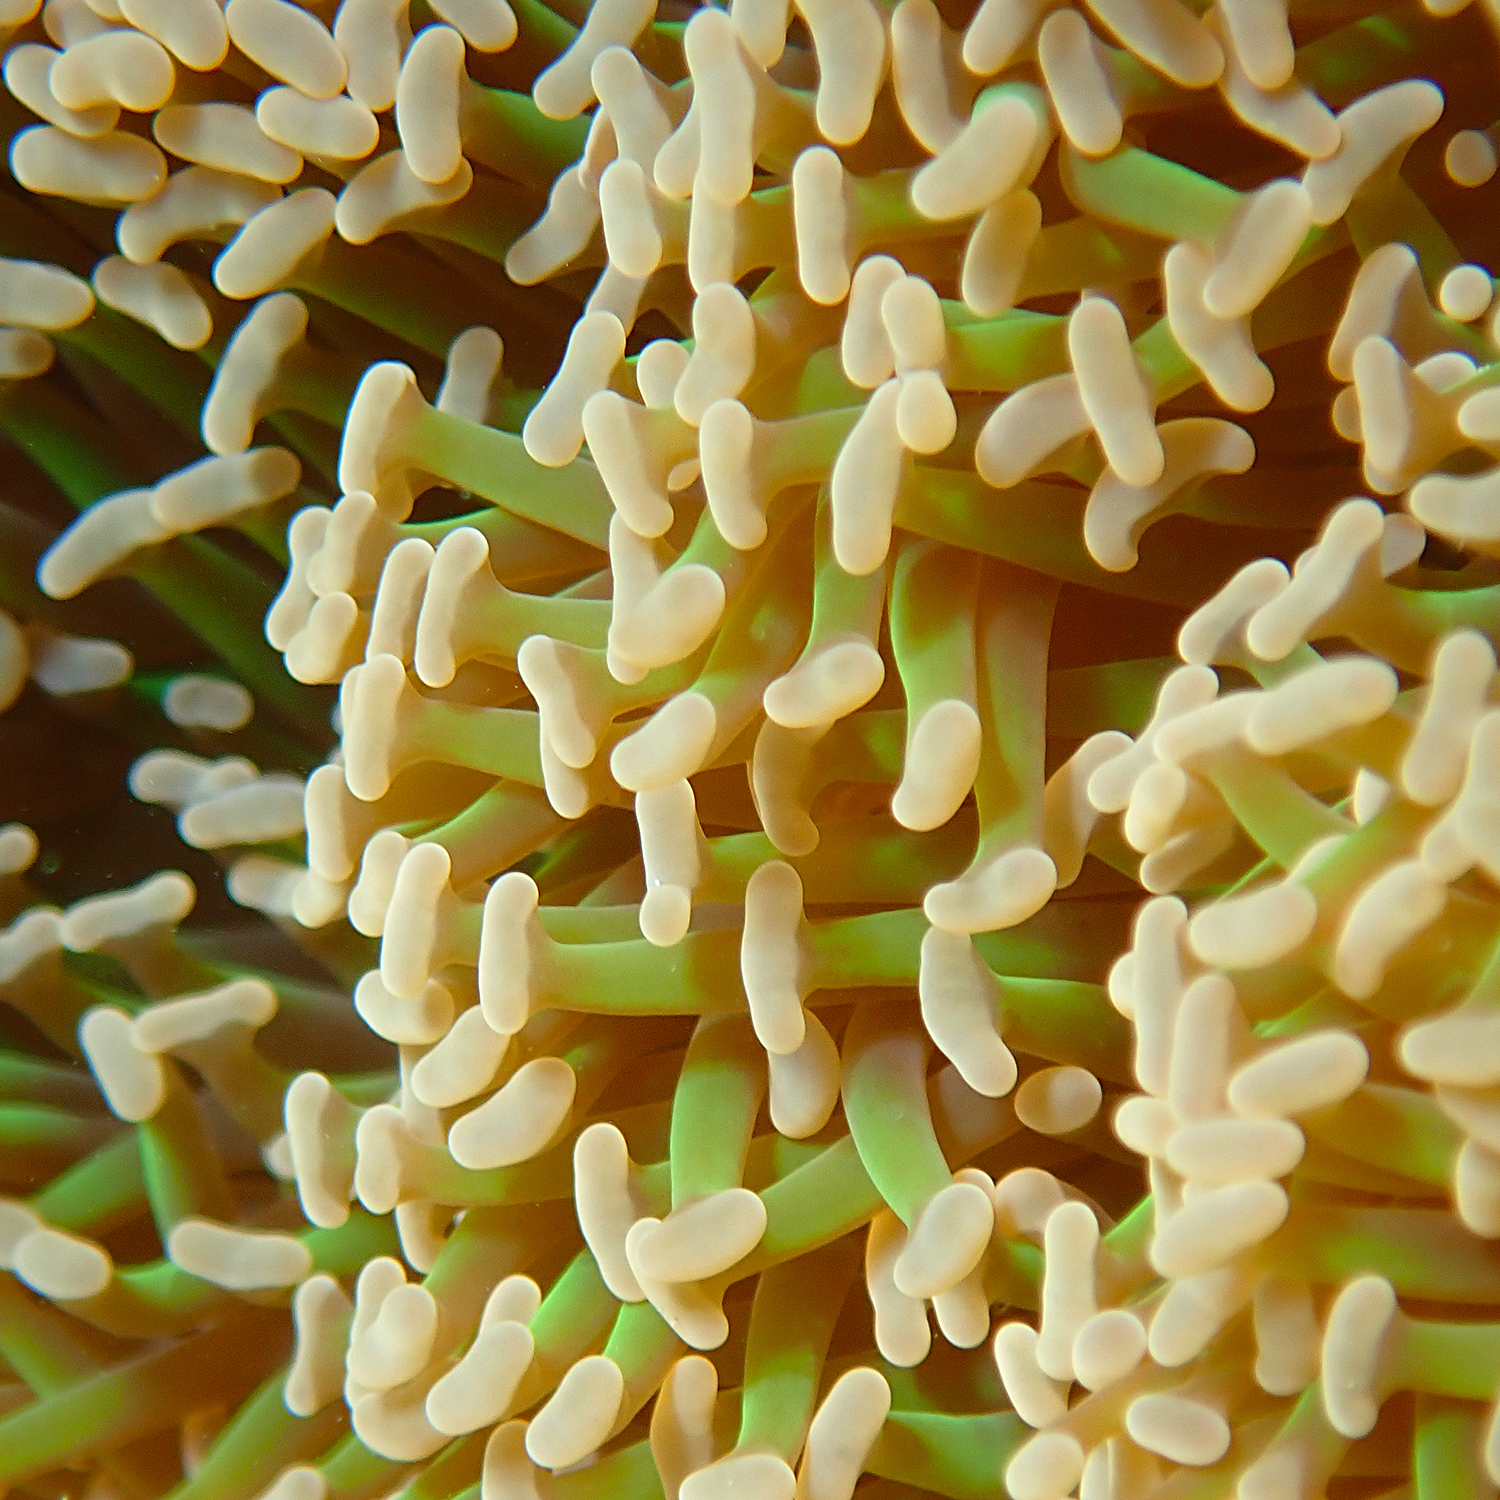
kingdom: Animalia
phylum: Cnidaria
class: Anthozoa
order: Scleractinia
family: Euphylliidae
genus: Fimbriaphyllia
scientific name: Fimbriaphyllia ancora
